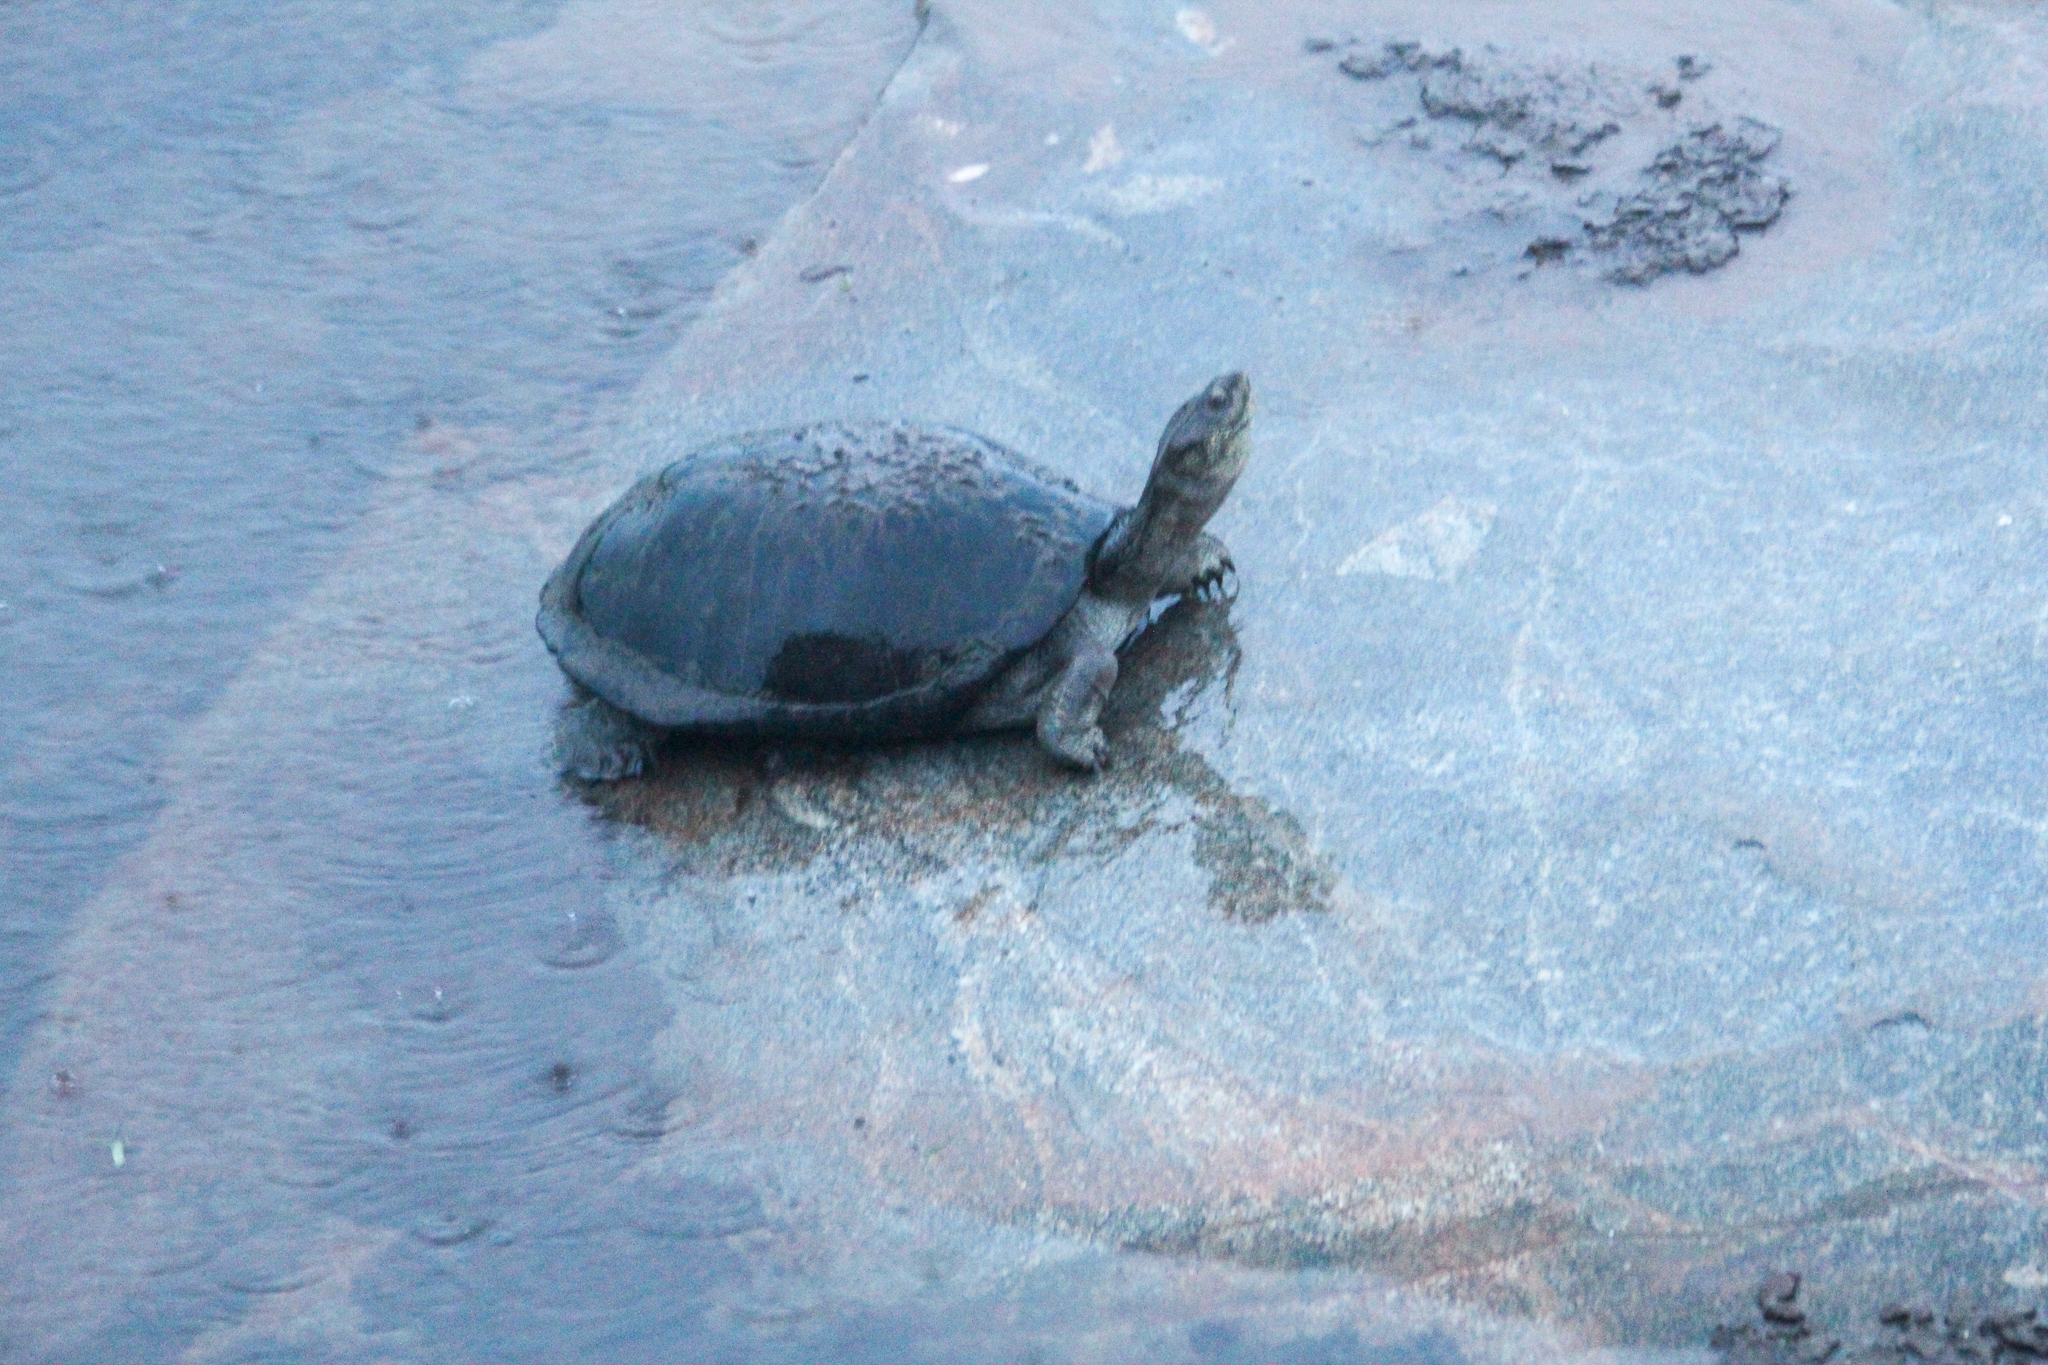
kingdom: Animalia
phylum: Chordata
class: Testudines
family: Pelomedusidae
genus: Pelusios
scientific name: Pelusios sinuatus
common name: Serrated hinged terrapin
